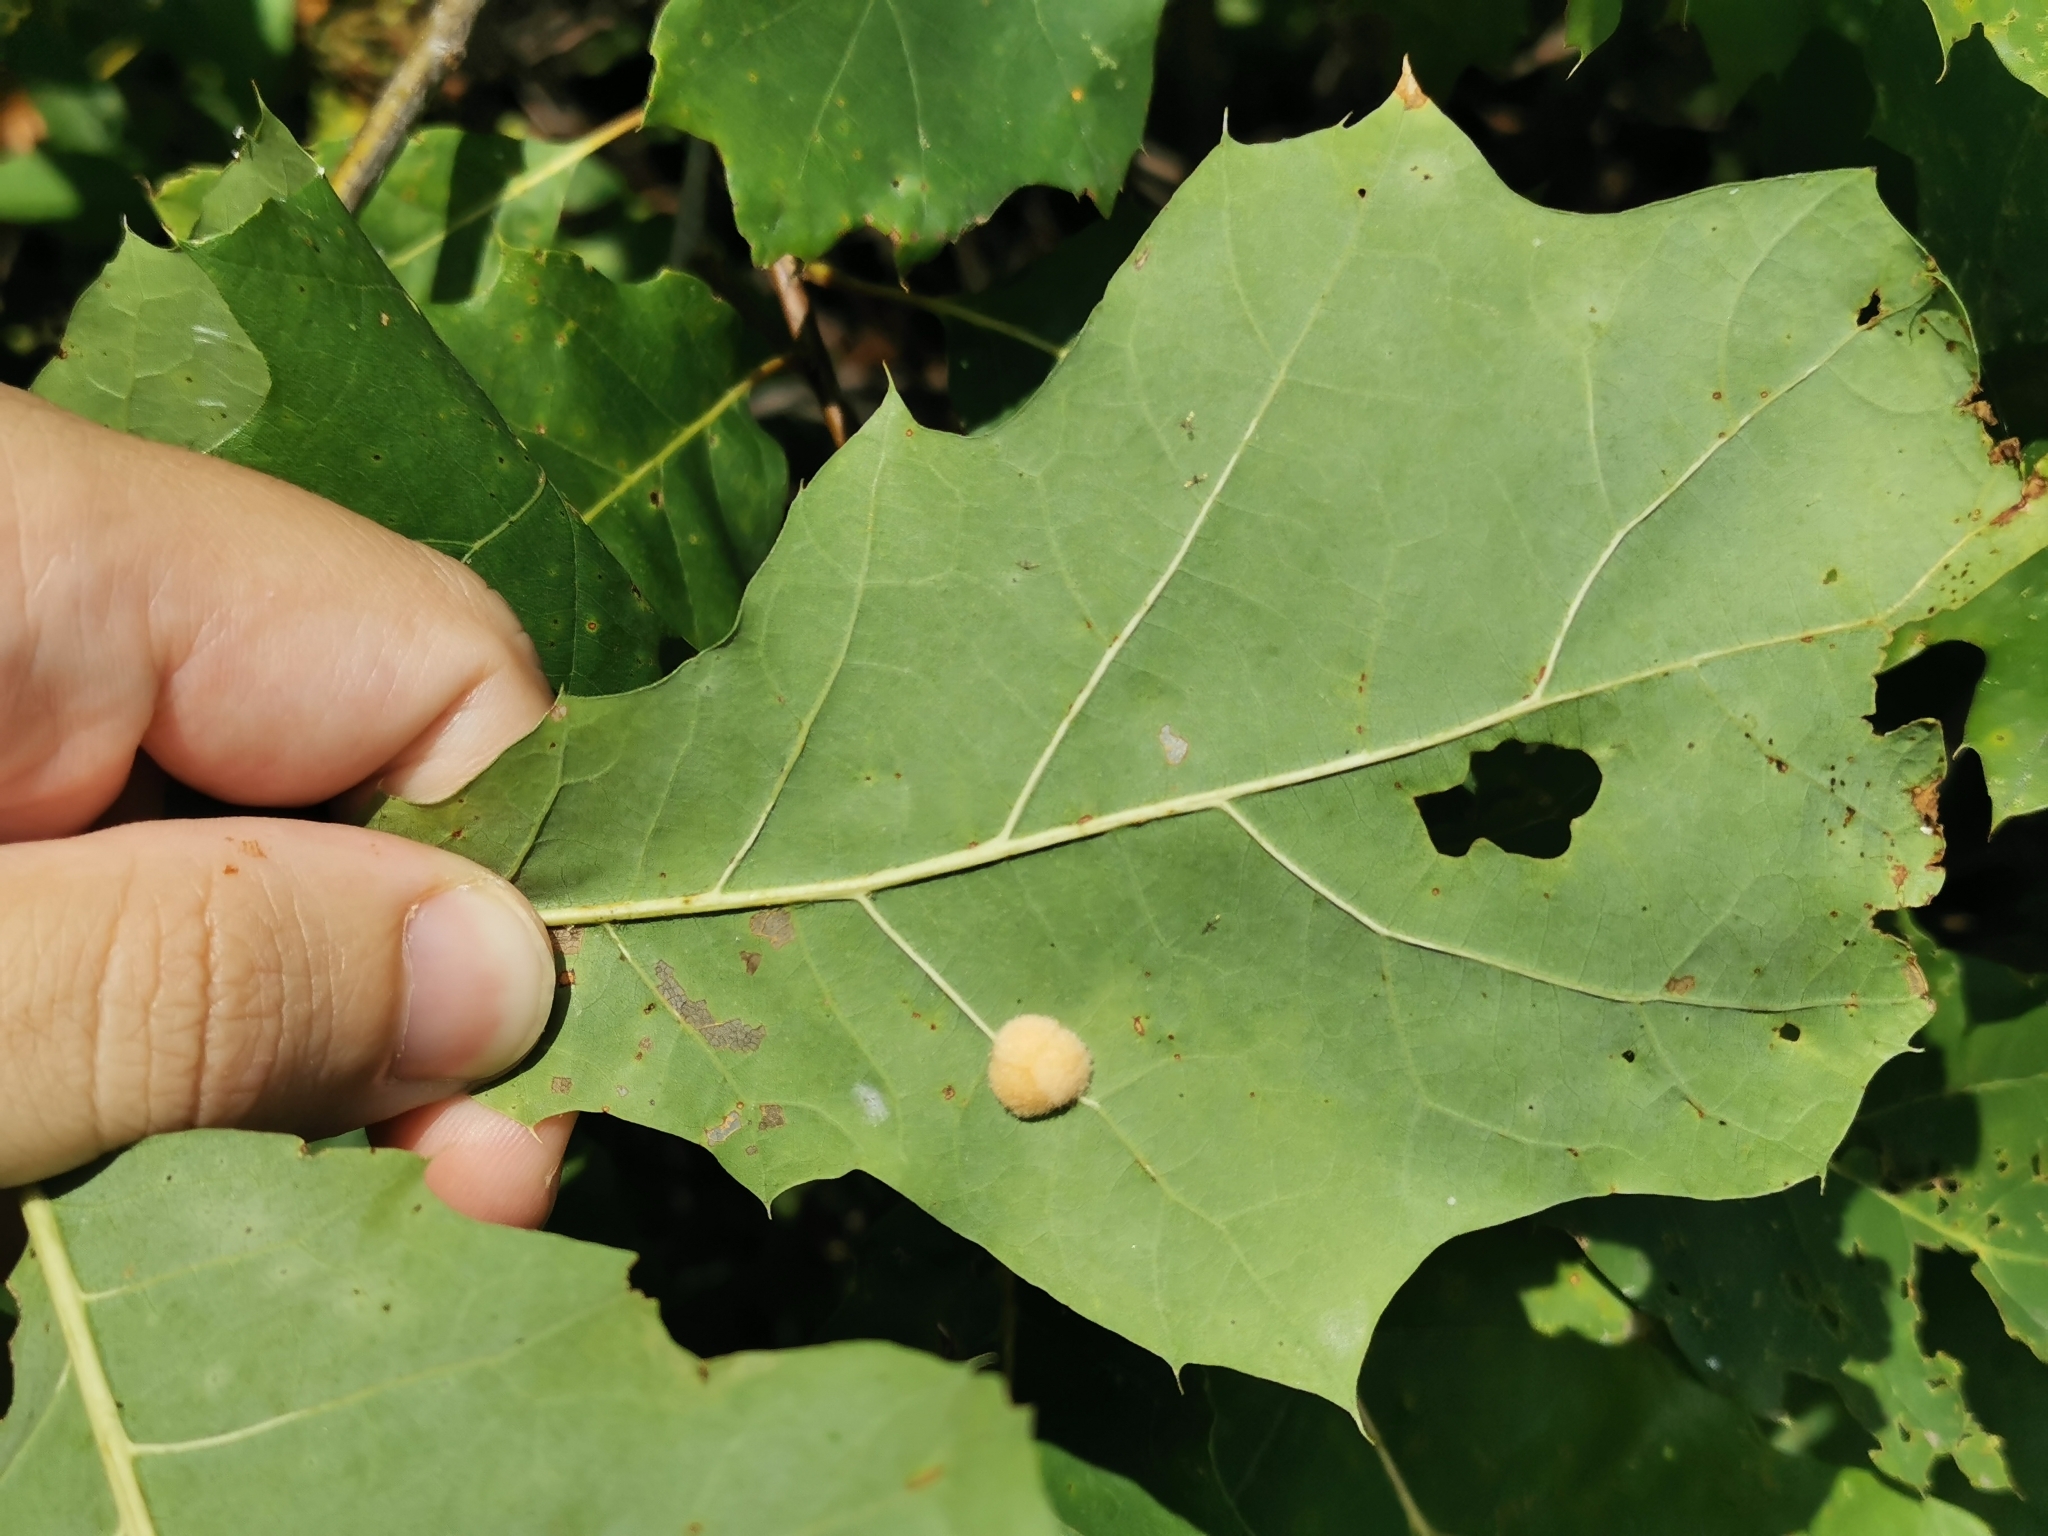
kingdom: Animalia
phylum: Arthropoda
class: Insecta
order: Hymenoptera
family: Cynipidae
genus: Callirhytis
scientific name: Callirhytis
